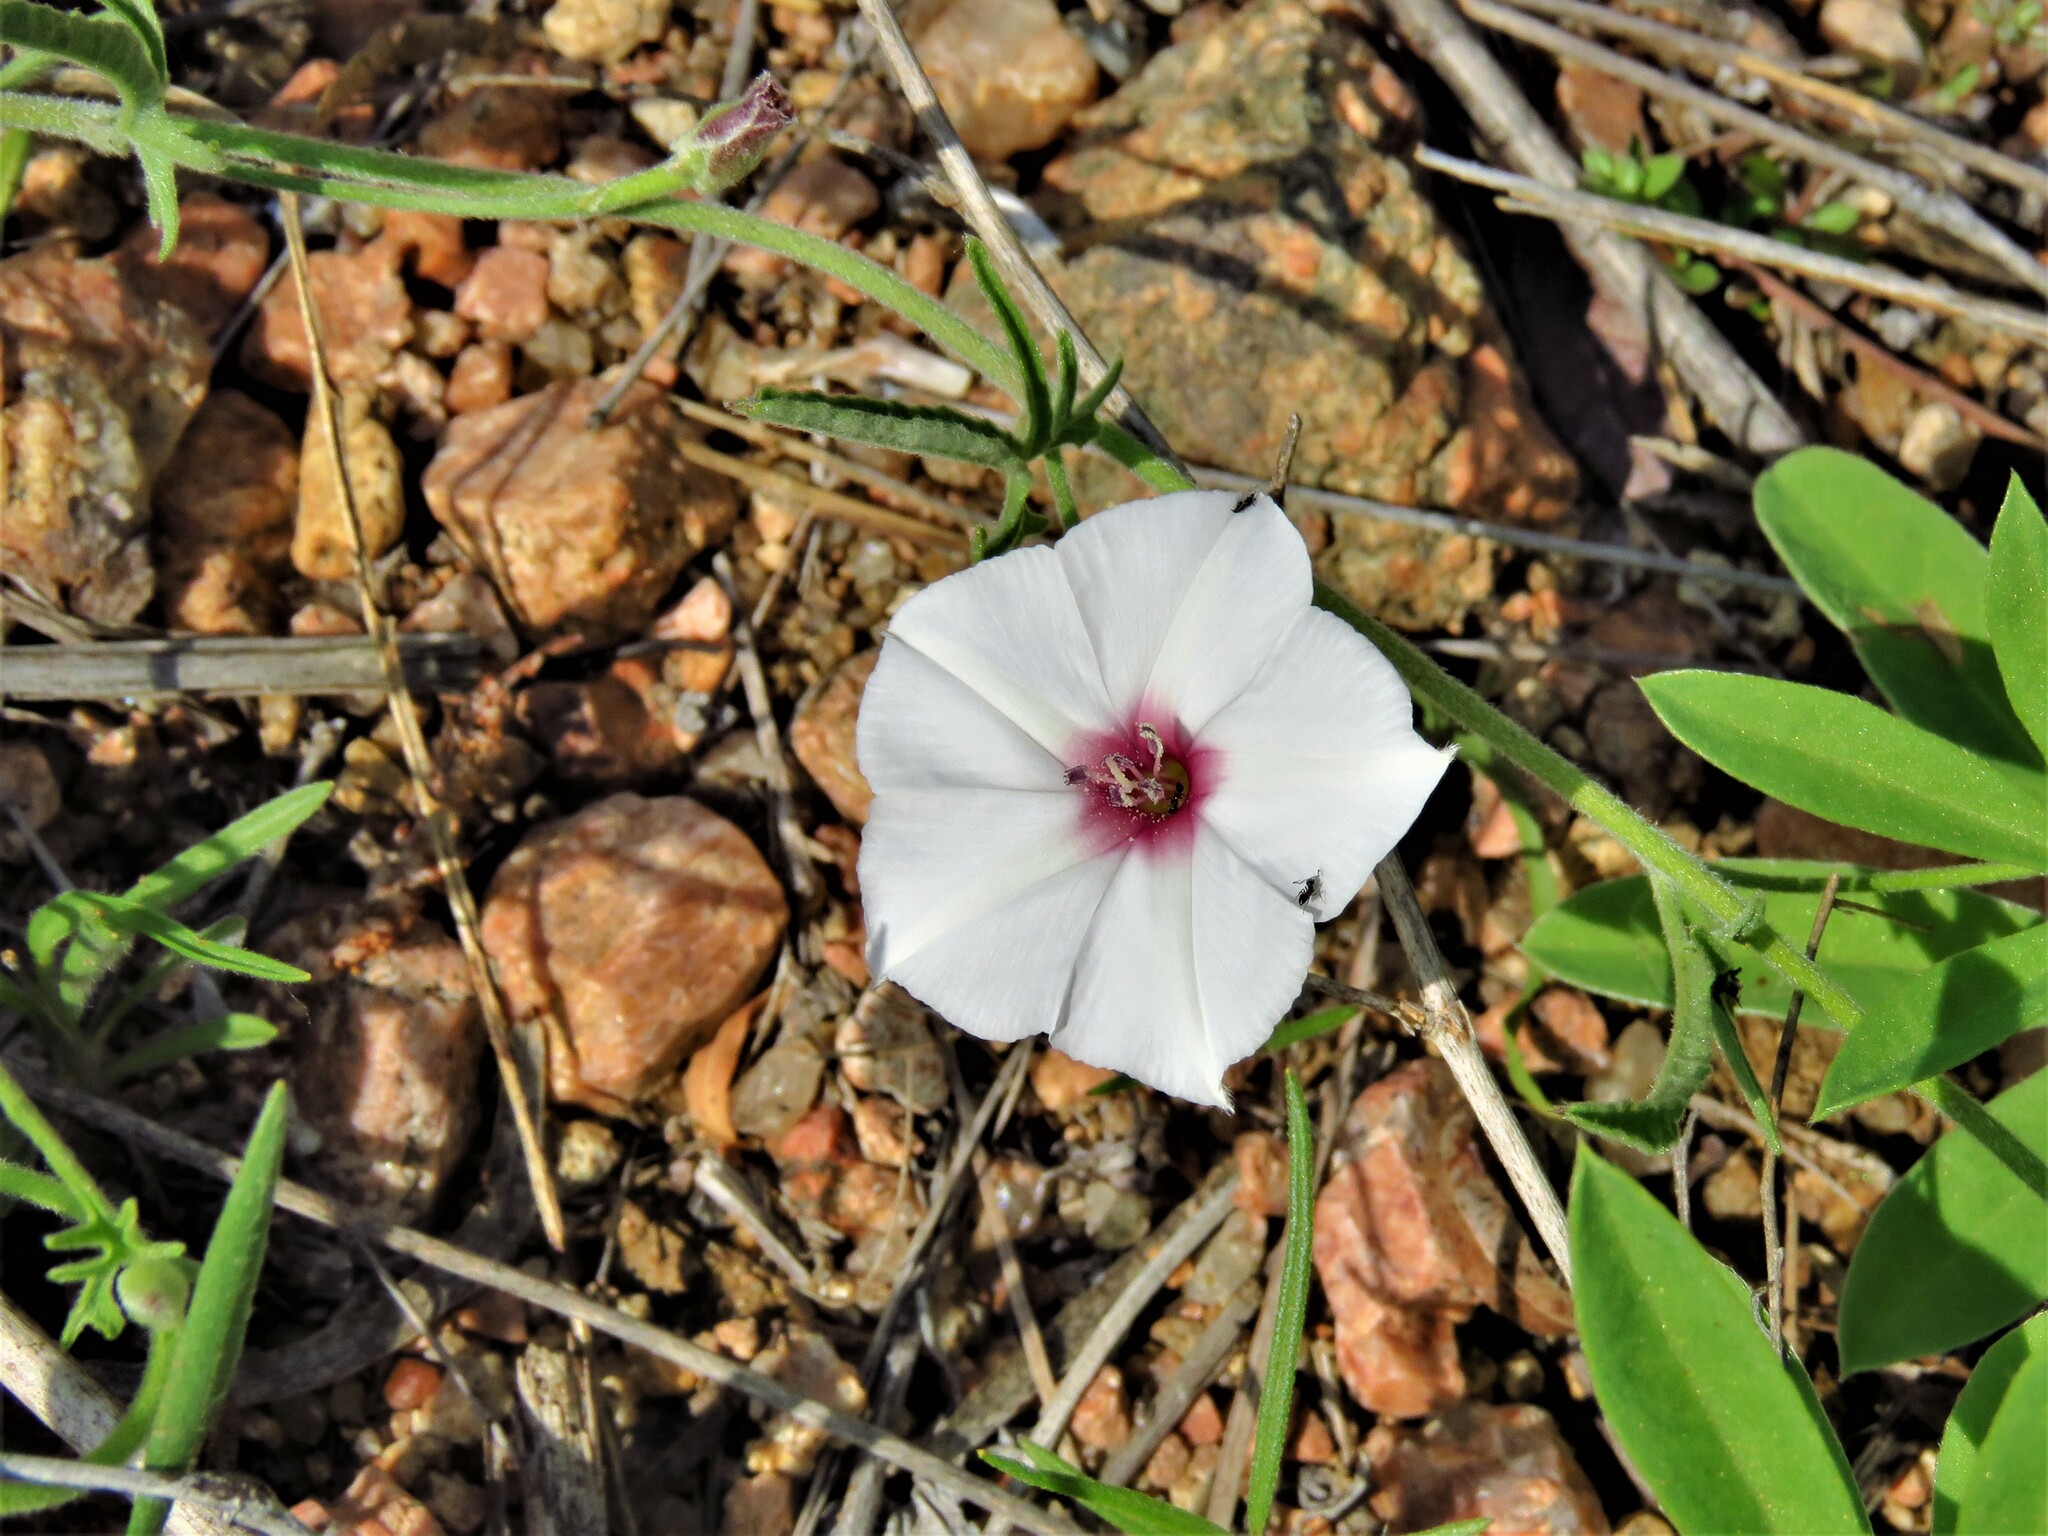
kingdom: Plantae
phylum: Tracheophyta
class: Magnoliopsida
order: Solanales
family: Convolvulaceae
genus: Convolvulus
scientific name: Convolvulus equitans
